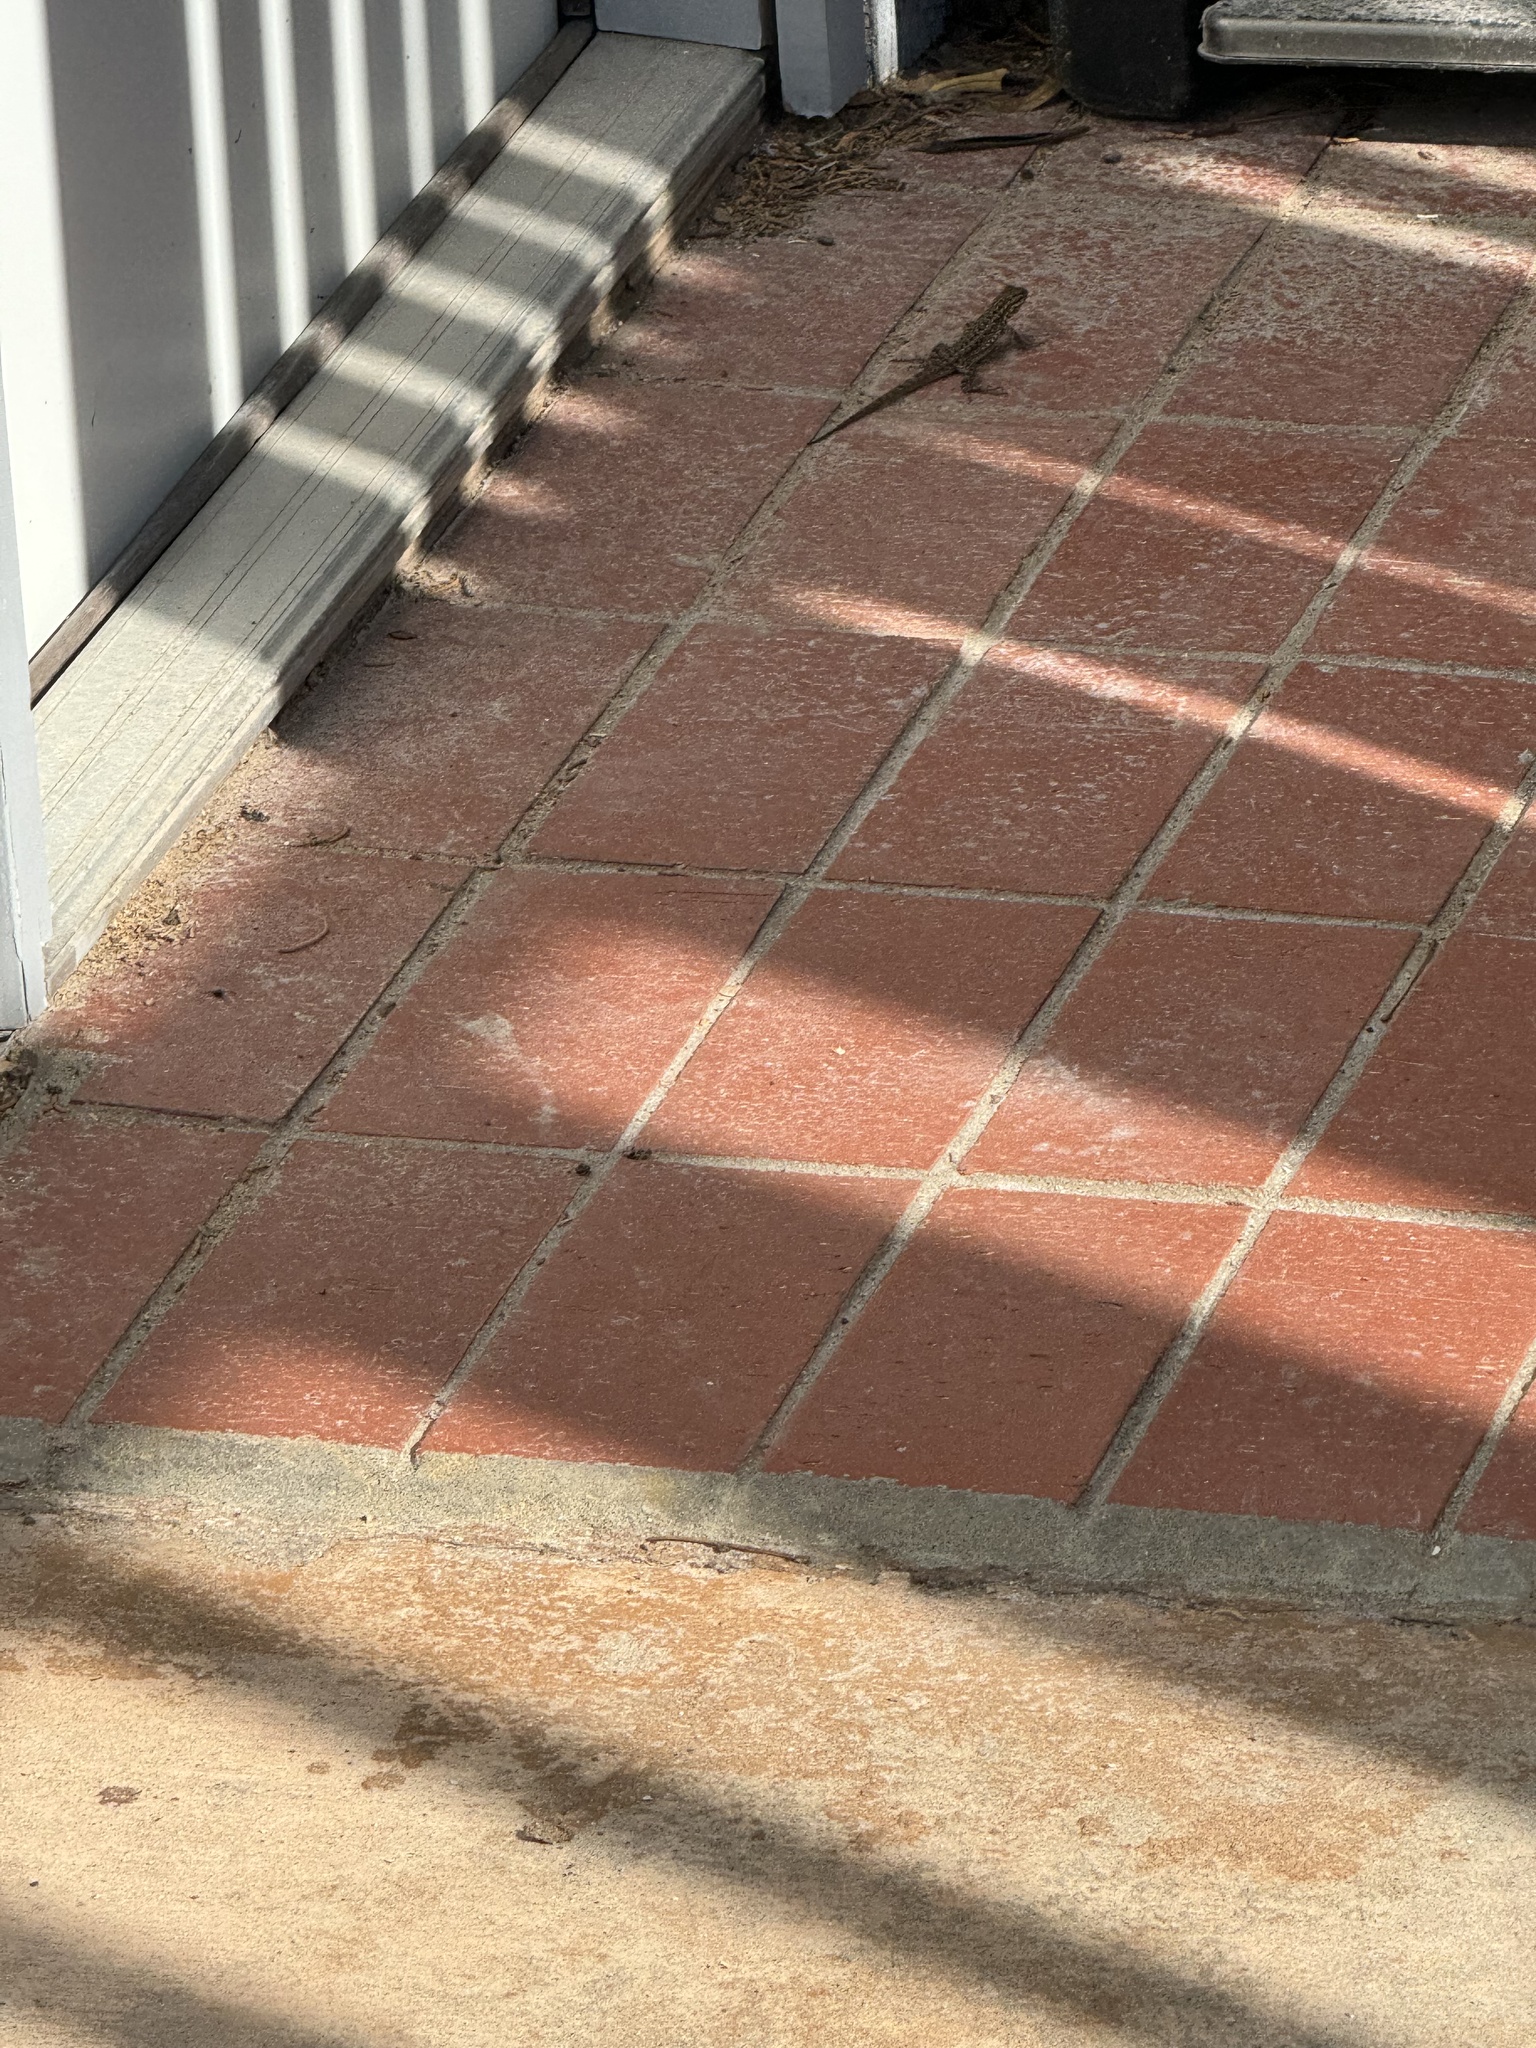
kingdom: Animalia
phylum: Chordata
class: Squamata
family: Phrynosomatidae
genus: Uta
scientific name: Uta stansburiana
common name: Side-blotched lizard
